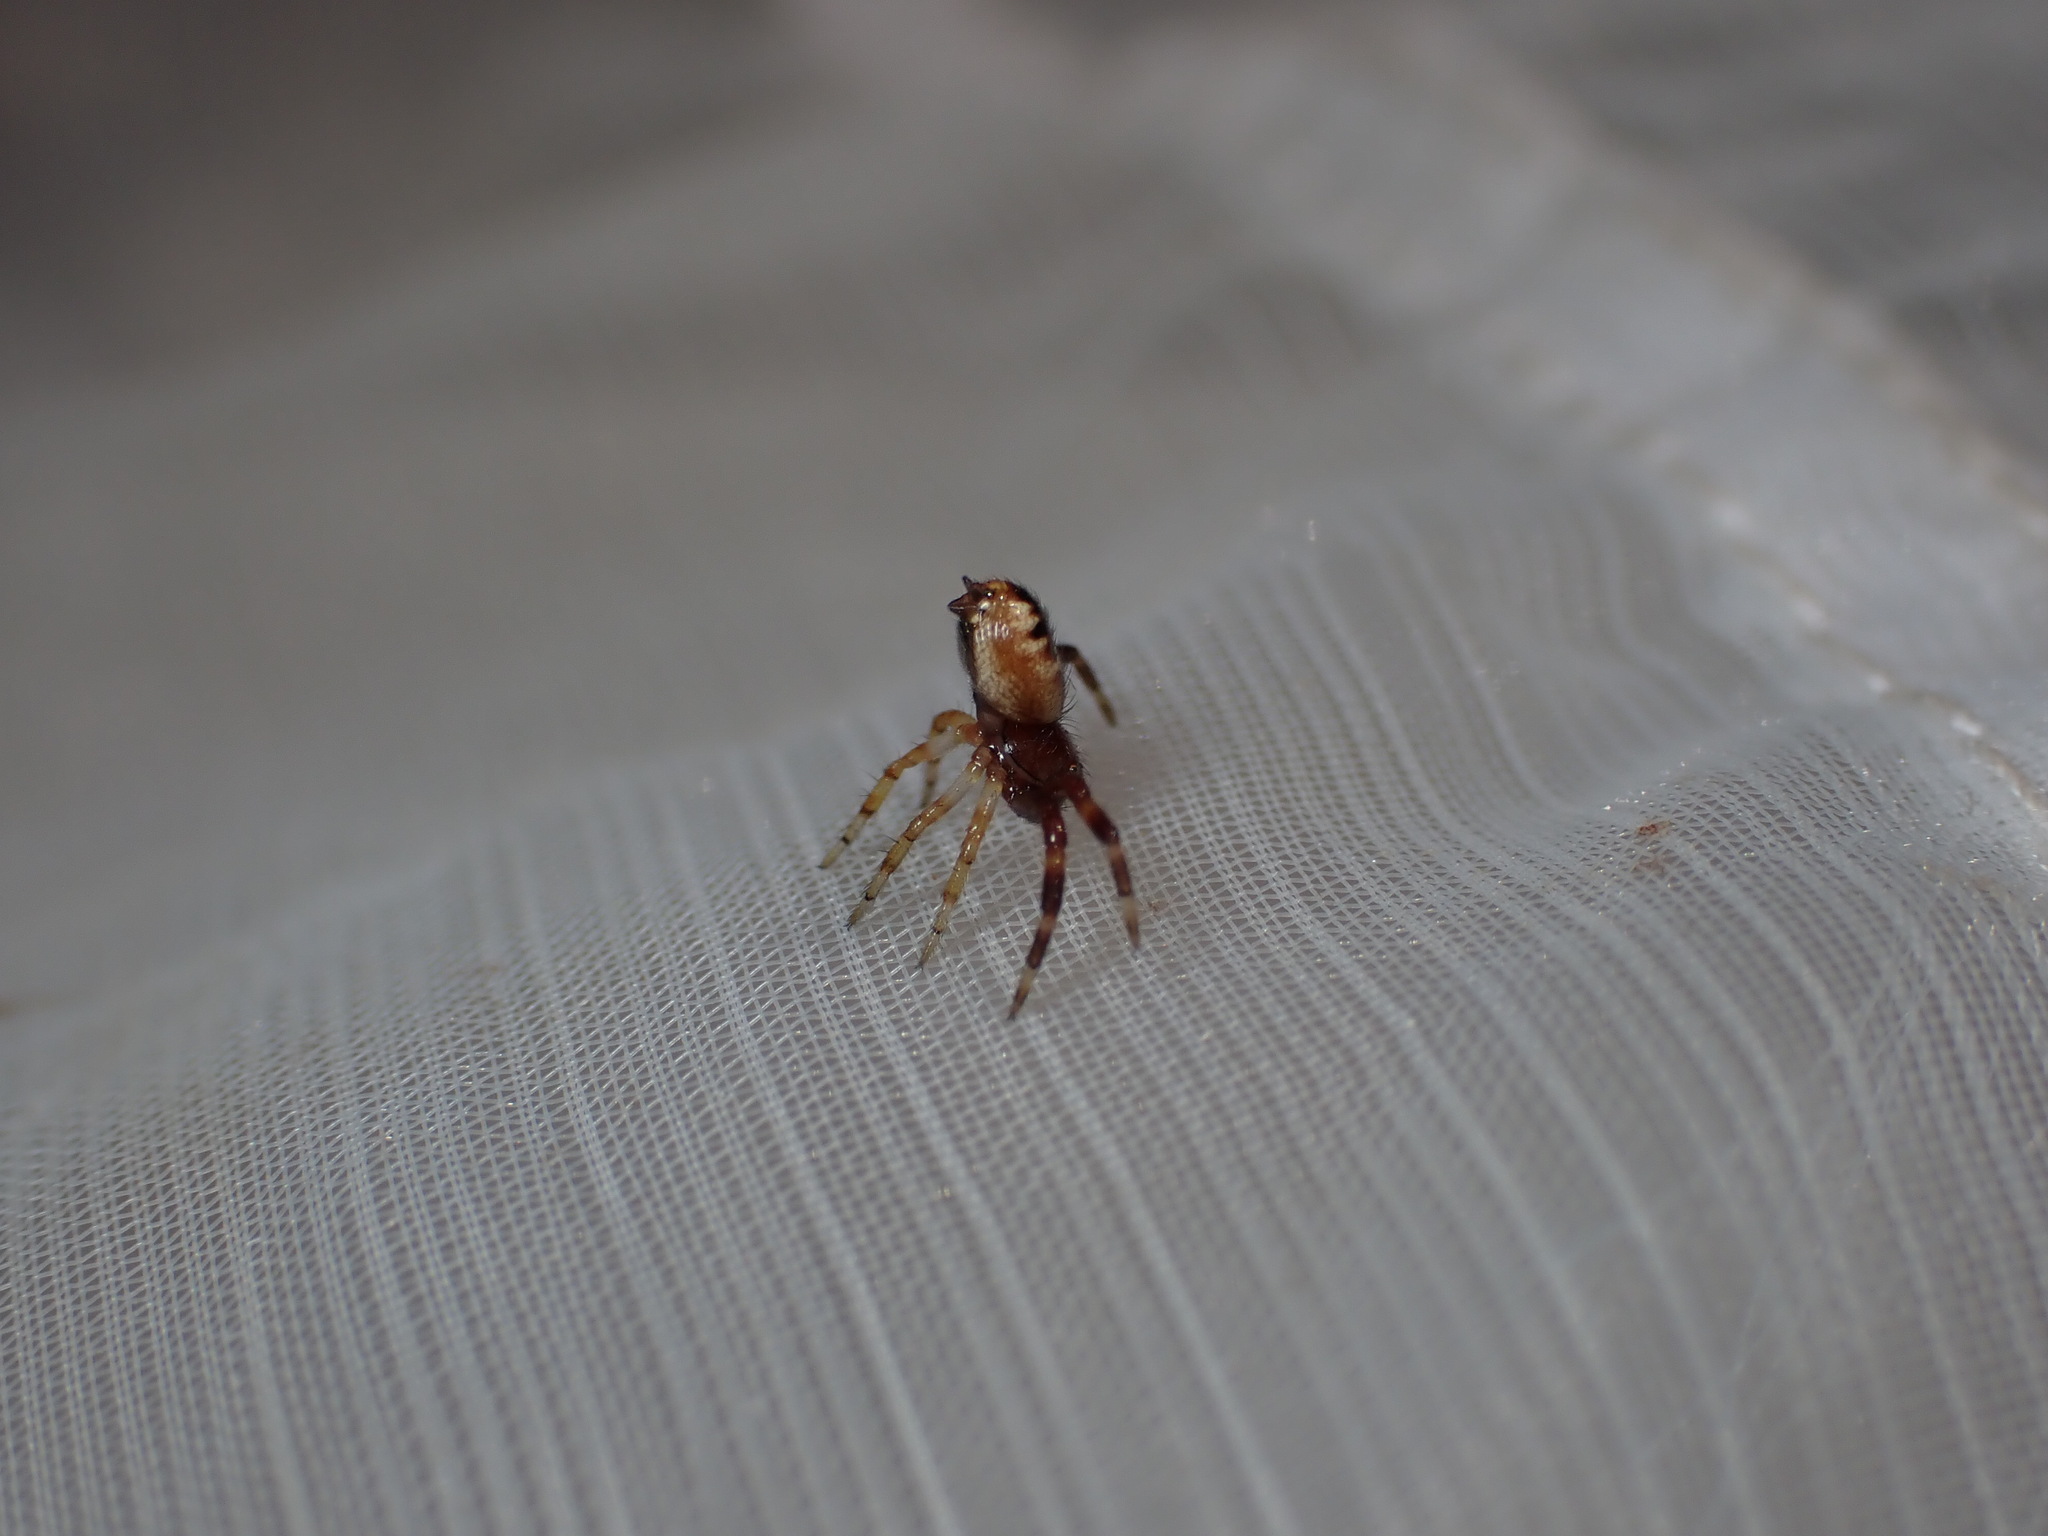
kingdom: Animalia
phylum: Arthropoda
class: Arachnida
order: Araneae
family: Thomisidae
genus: Synema
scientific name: Synema globosum
